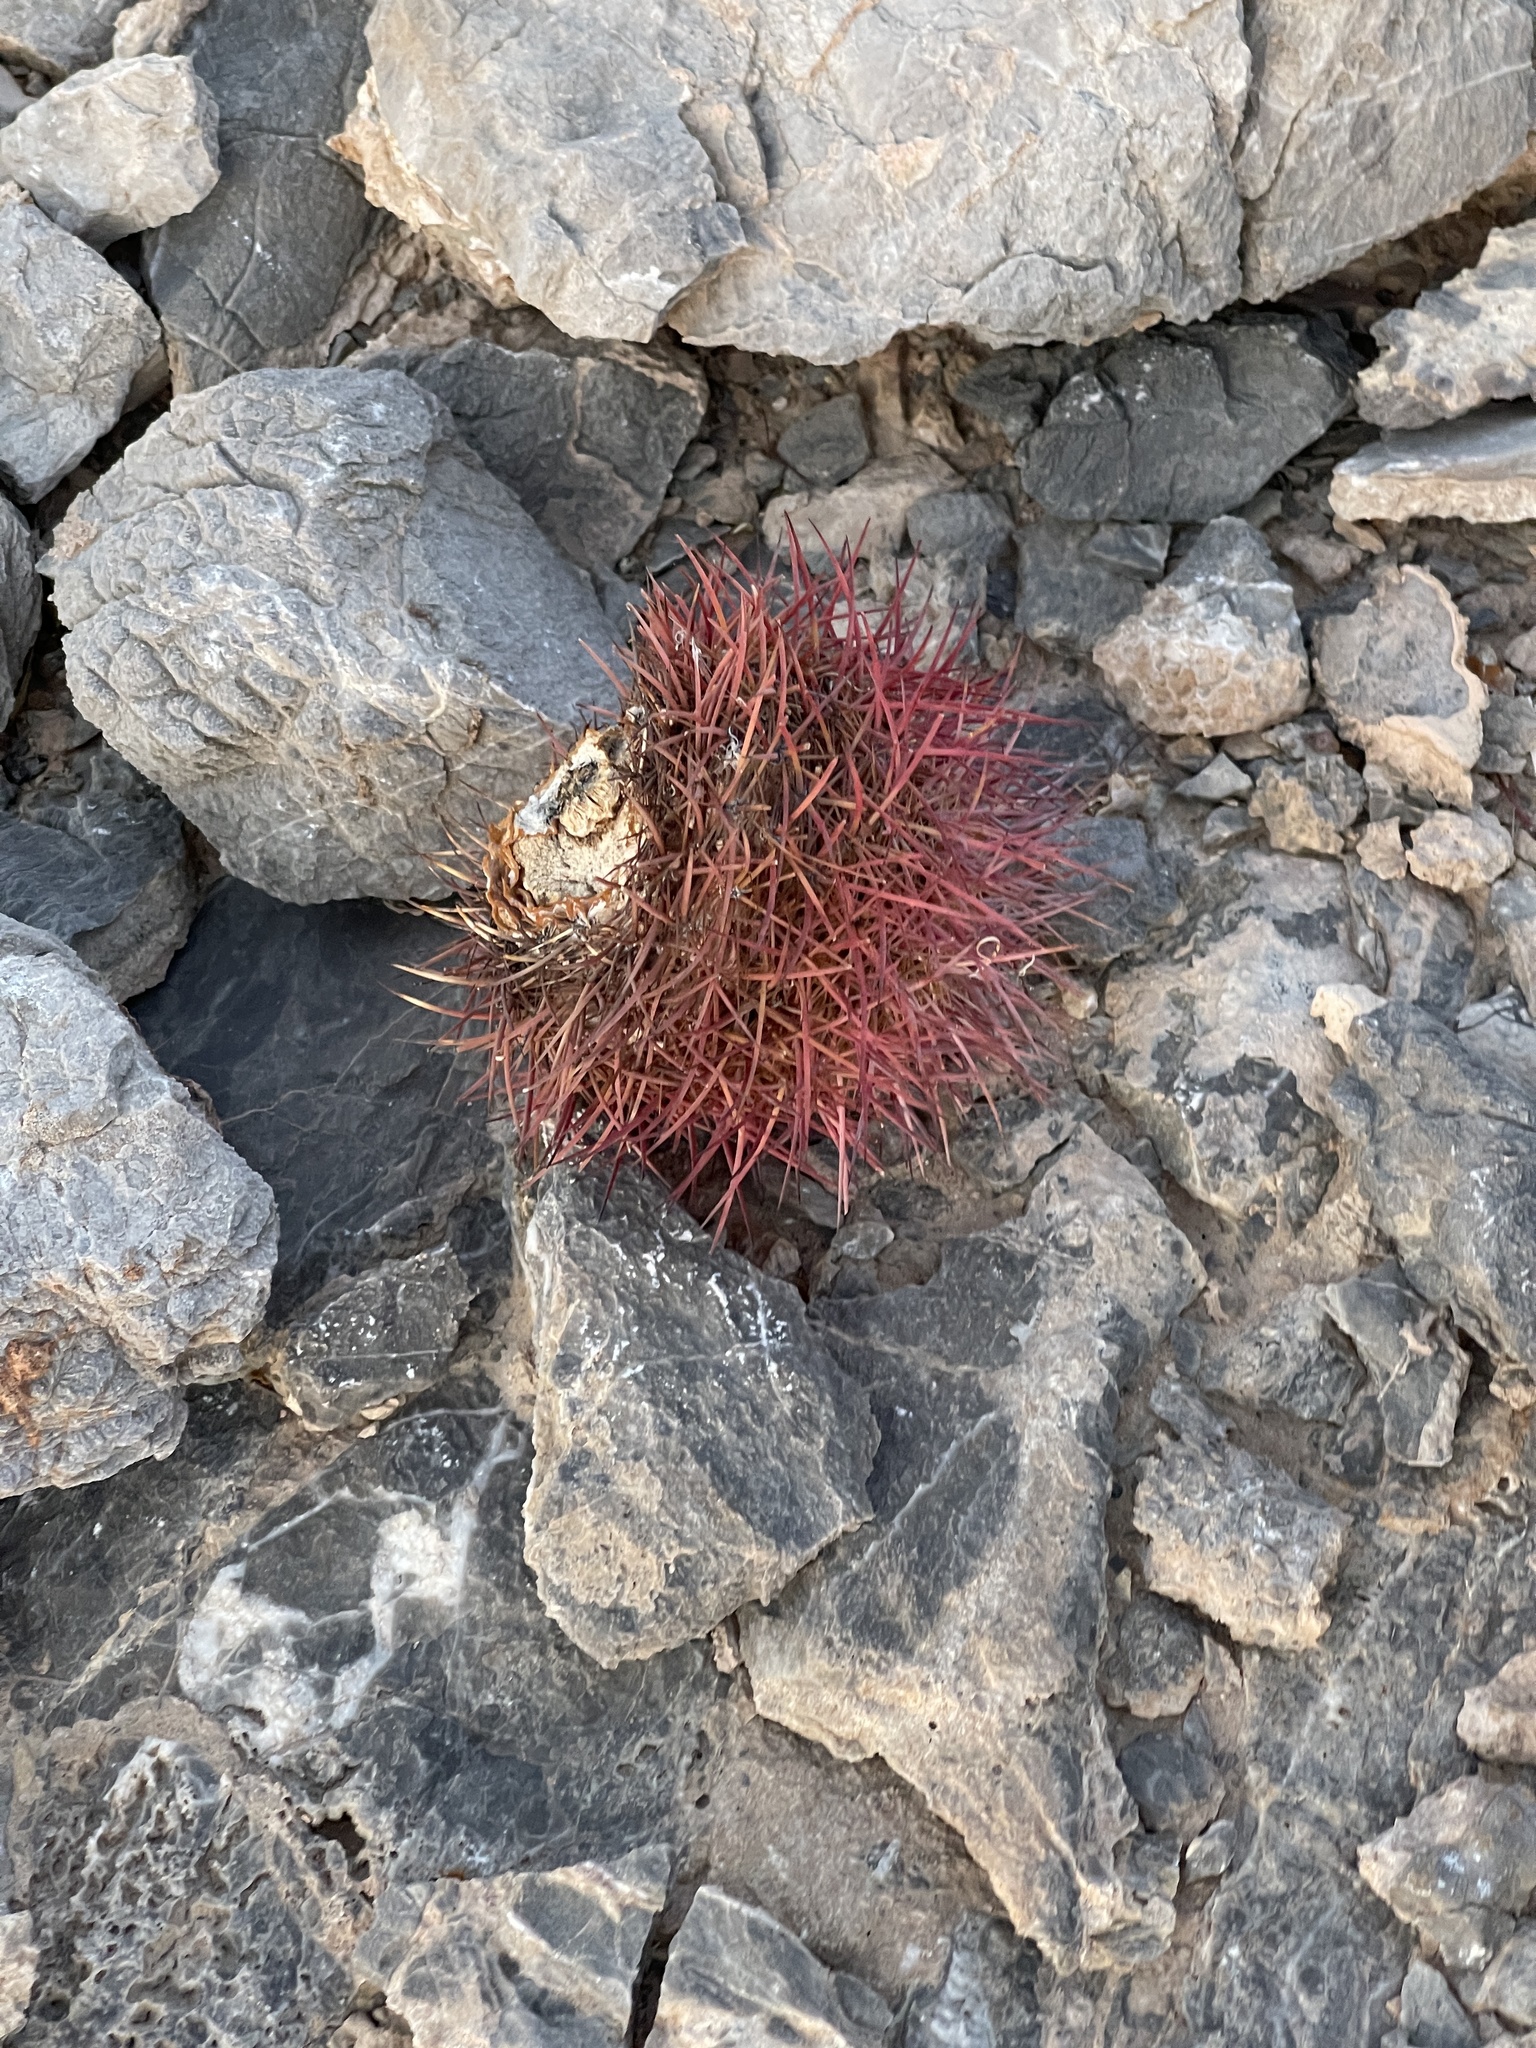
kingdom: Plantae
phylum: Tracheophyta
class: Magnoliopsida
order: Caryophyllales
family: Cactaceae
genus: Sclerocactus
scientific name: Sclerocactus johnsonii
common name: Eight-spine fishhook cactus
